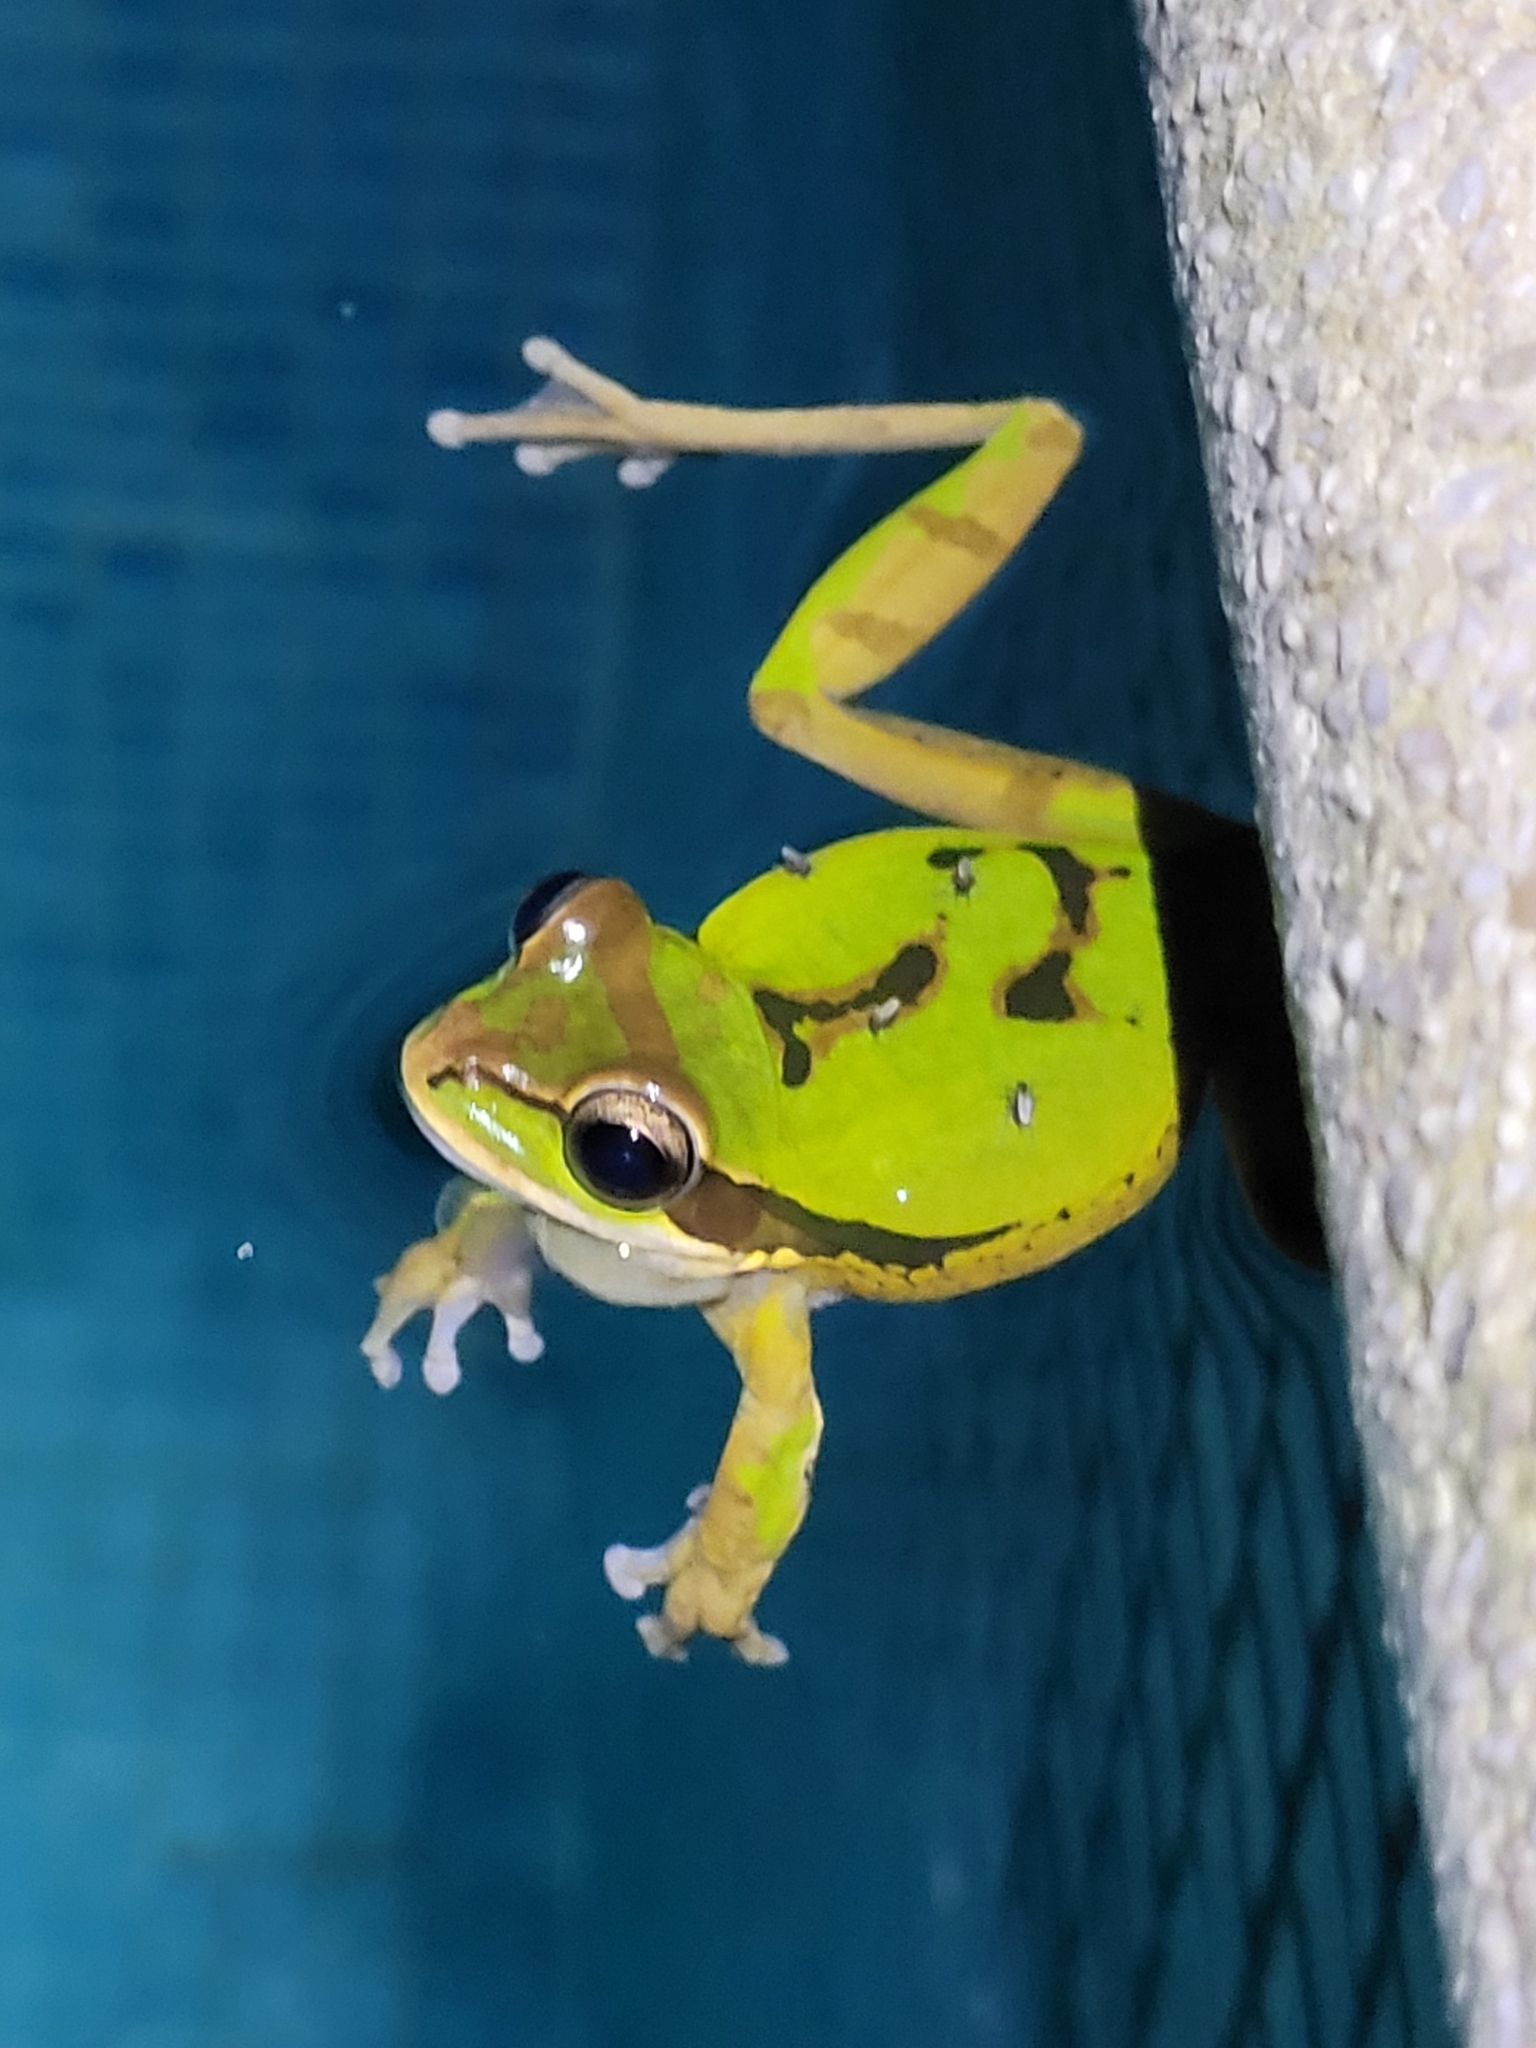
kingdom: Animalia
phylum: Chordata
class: Amphibia
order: Anura
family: Hylidae
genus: Smilisca
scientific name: Smilisca phaeota
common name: Central american smilisca
